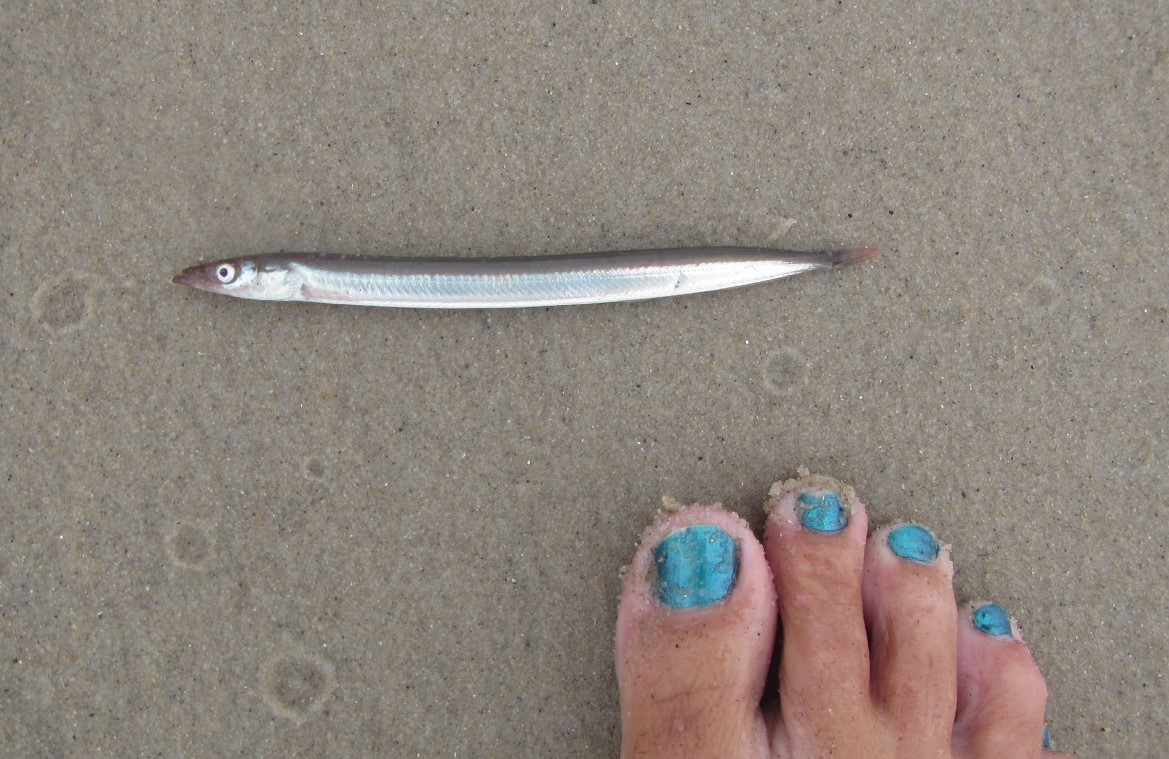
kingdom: Animalia
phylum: Chordata
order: Perciformes
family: Ammodytidae
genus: Ammodytes
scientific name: Ammodytes
